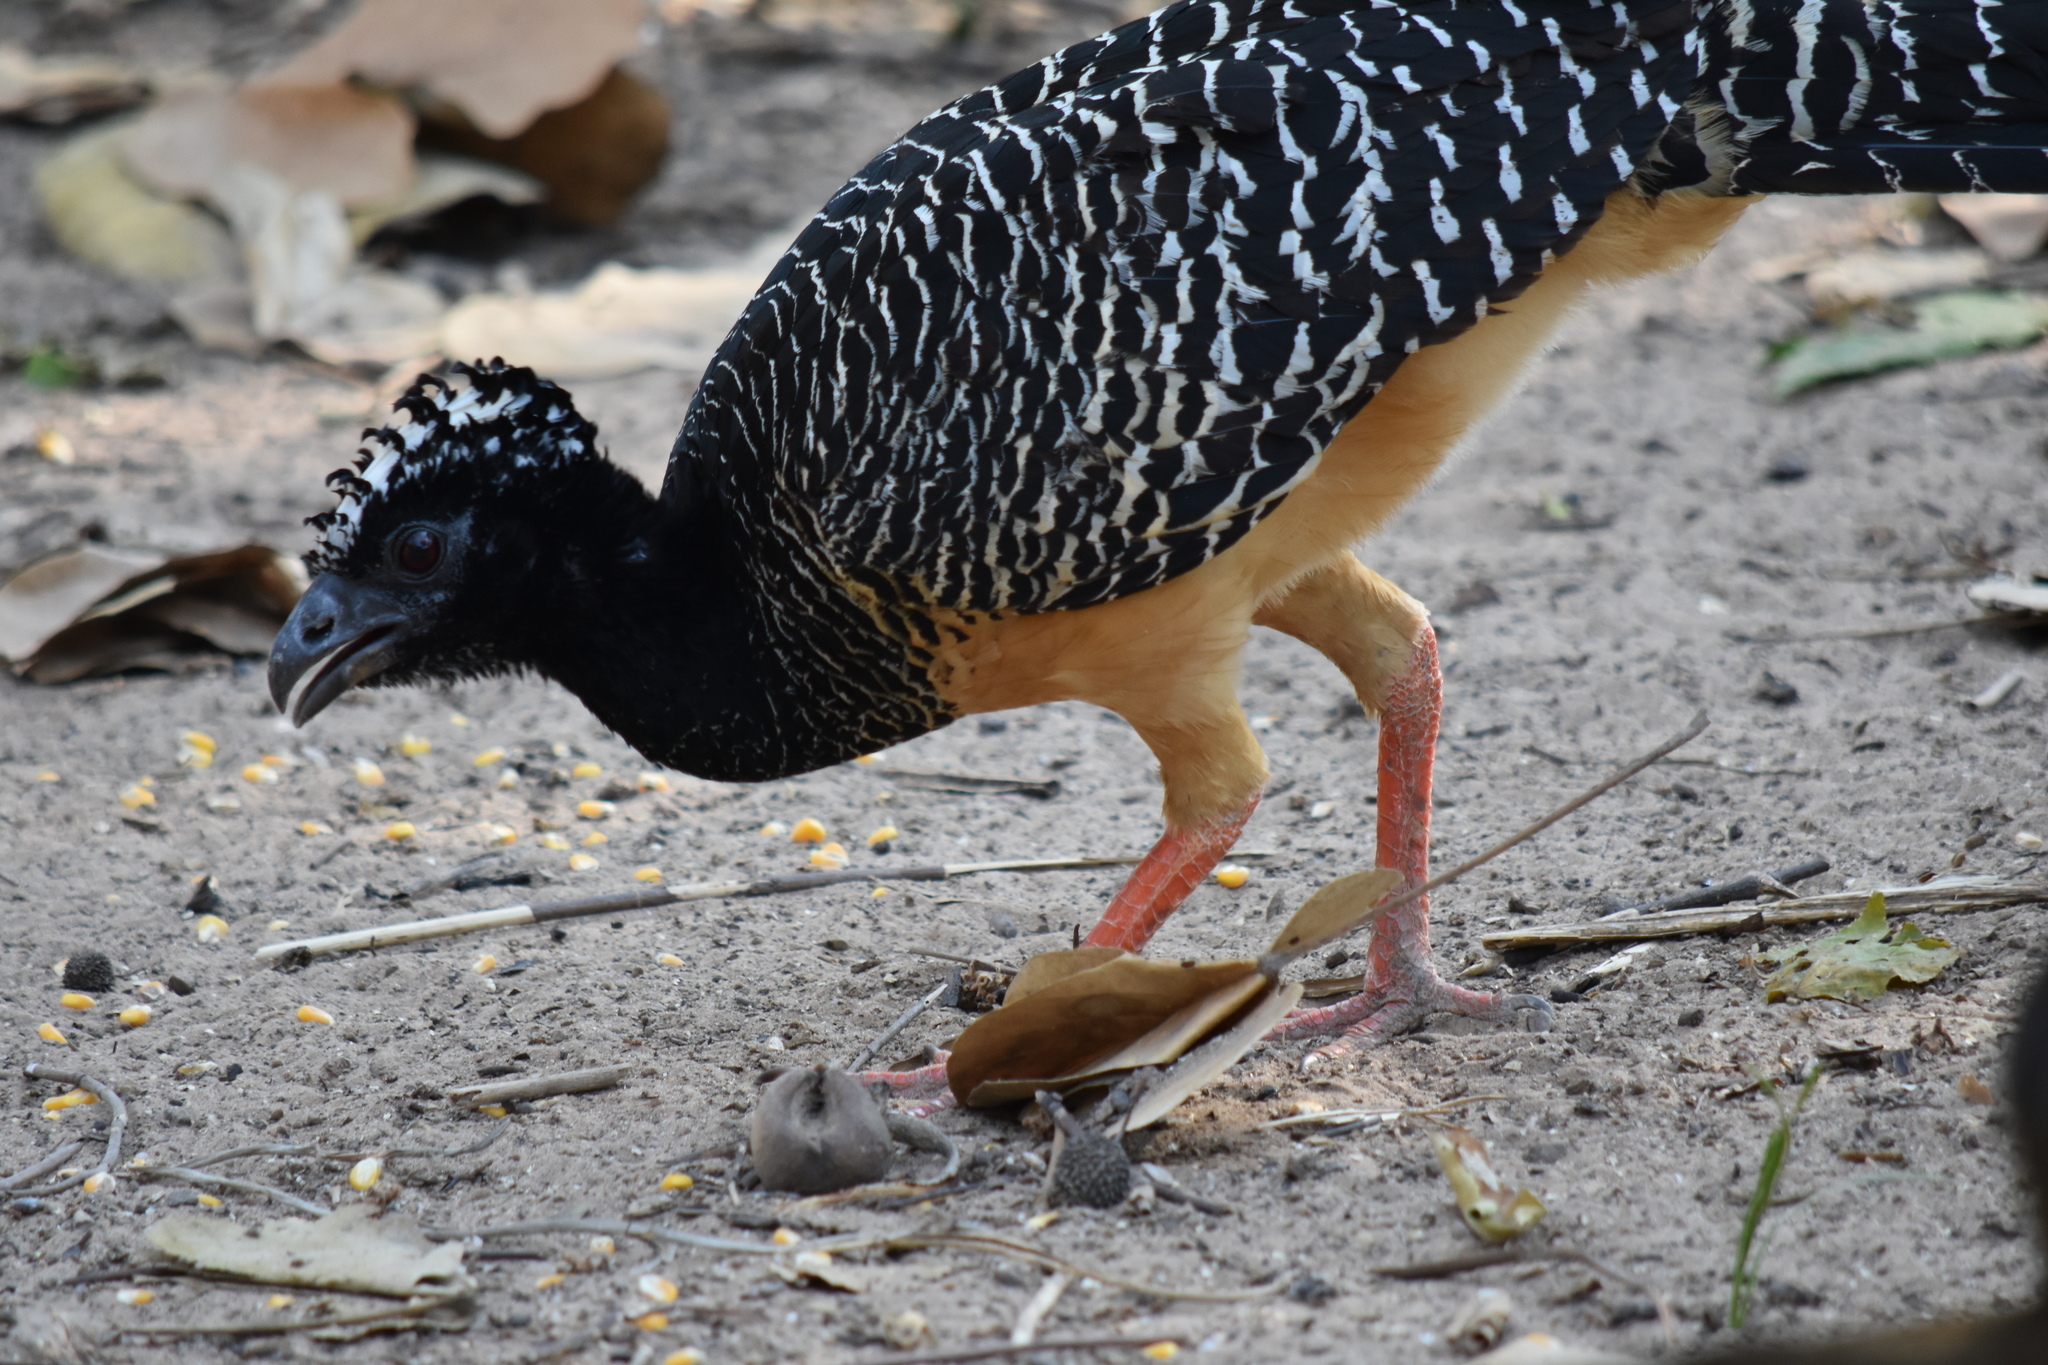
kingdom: Animalia
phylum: Chordata
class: Aves
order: Galliformes
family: Cracidae
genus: Crax
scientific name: Crax fasciolata
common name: Bare-faced curassow
